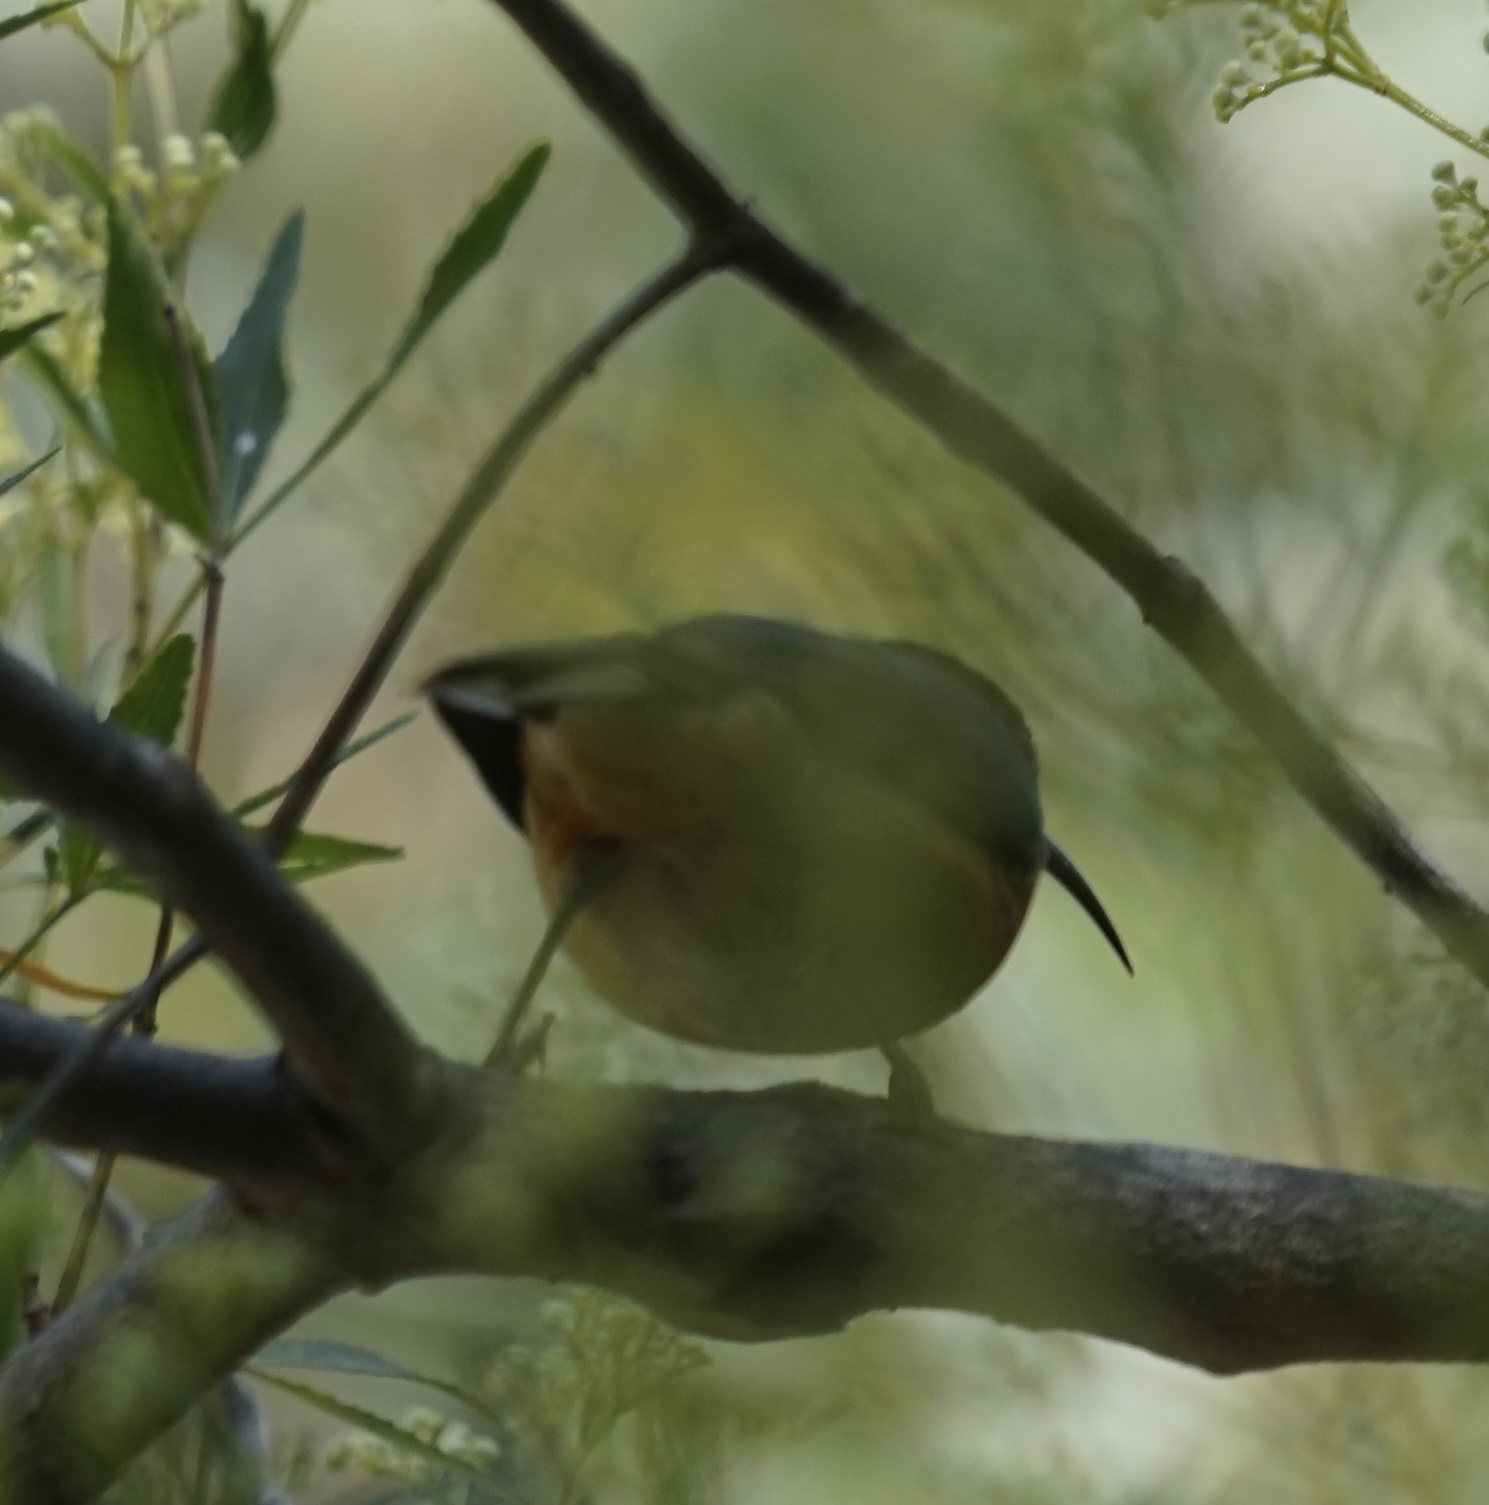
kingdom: Animalia
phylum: Chordata
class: Aves
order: Passeriformes
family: Meliphagidae
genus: Acanthorhynchus
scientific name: Acanthorhynchus tenuirostris
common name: Eastern spinebill
